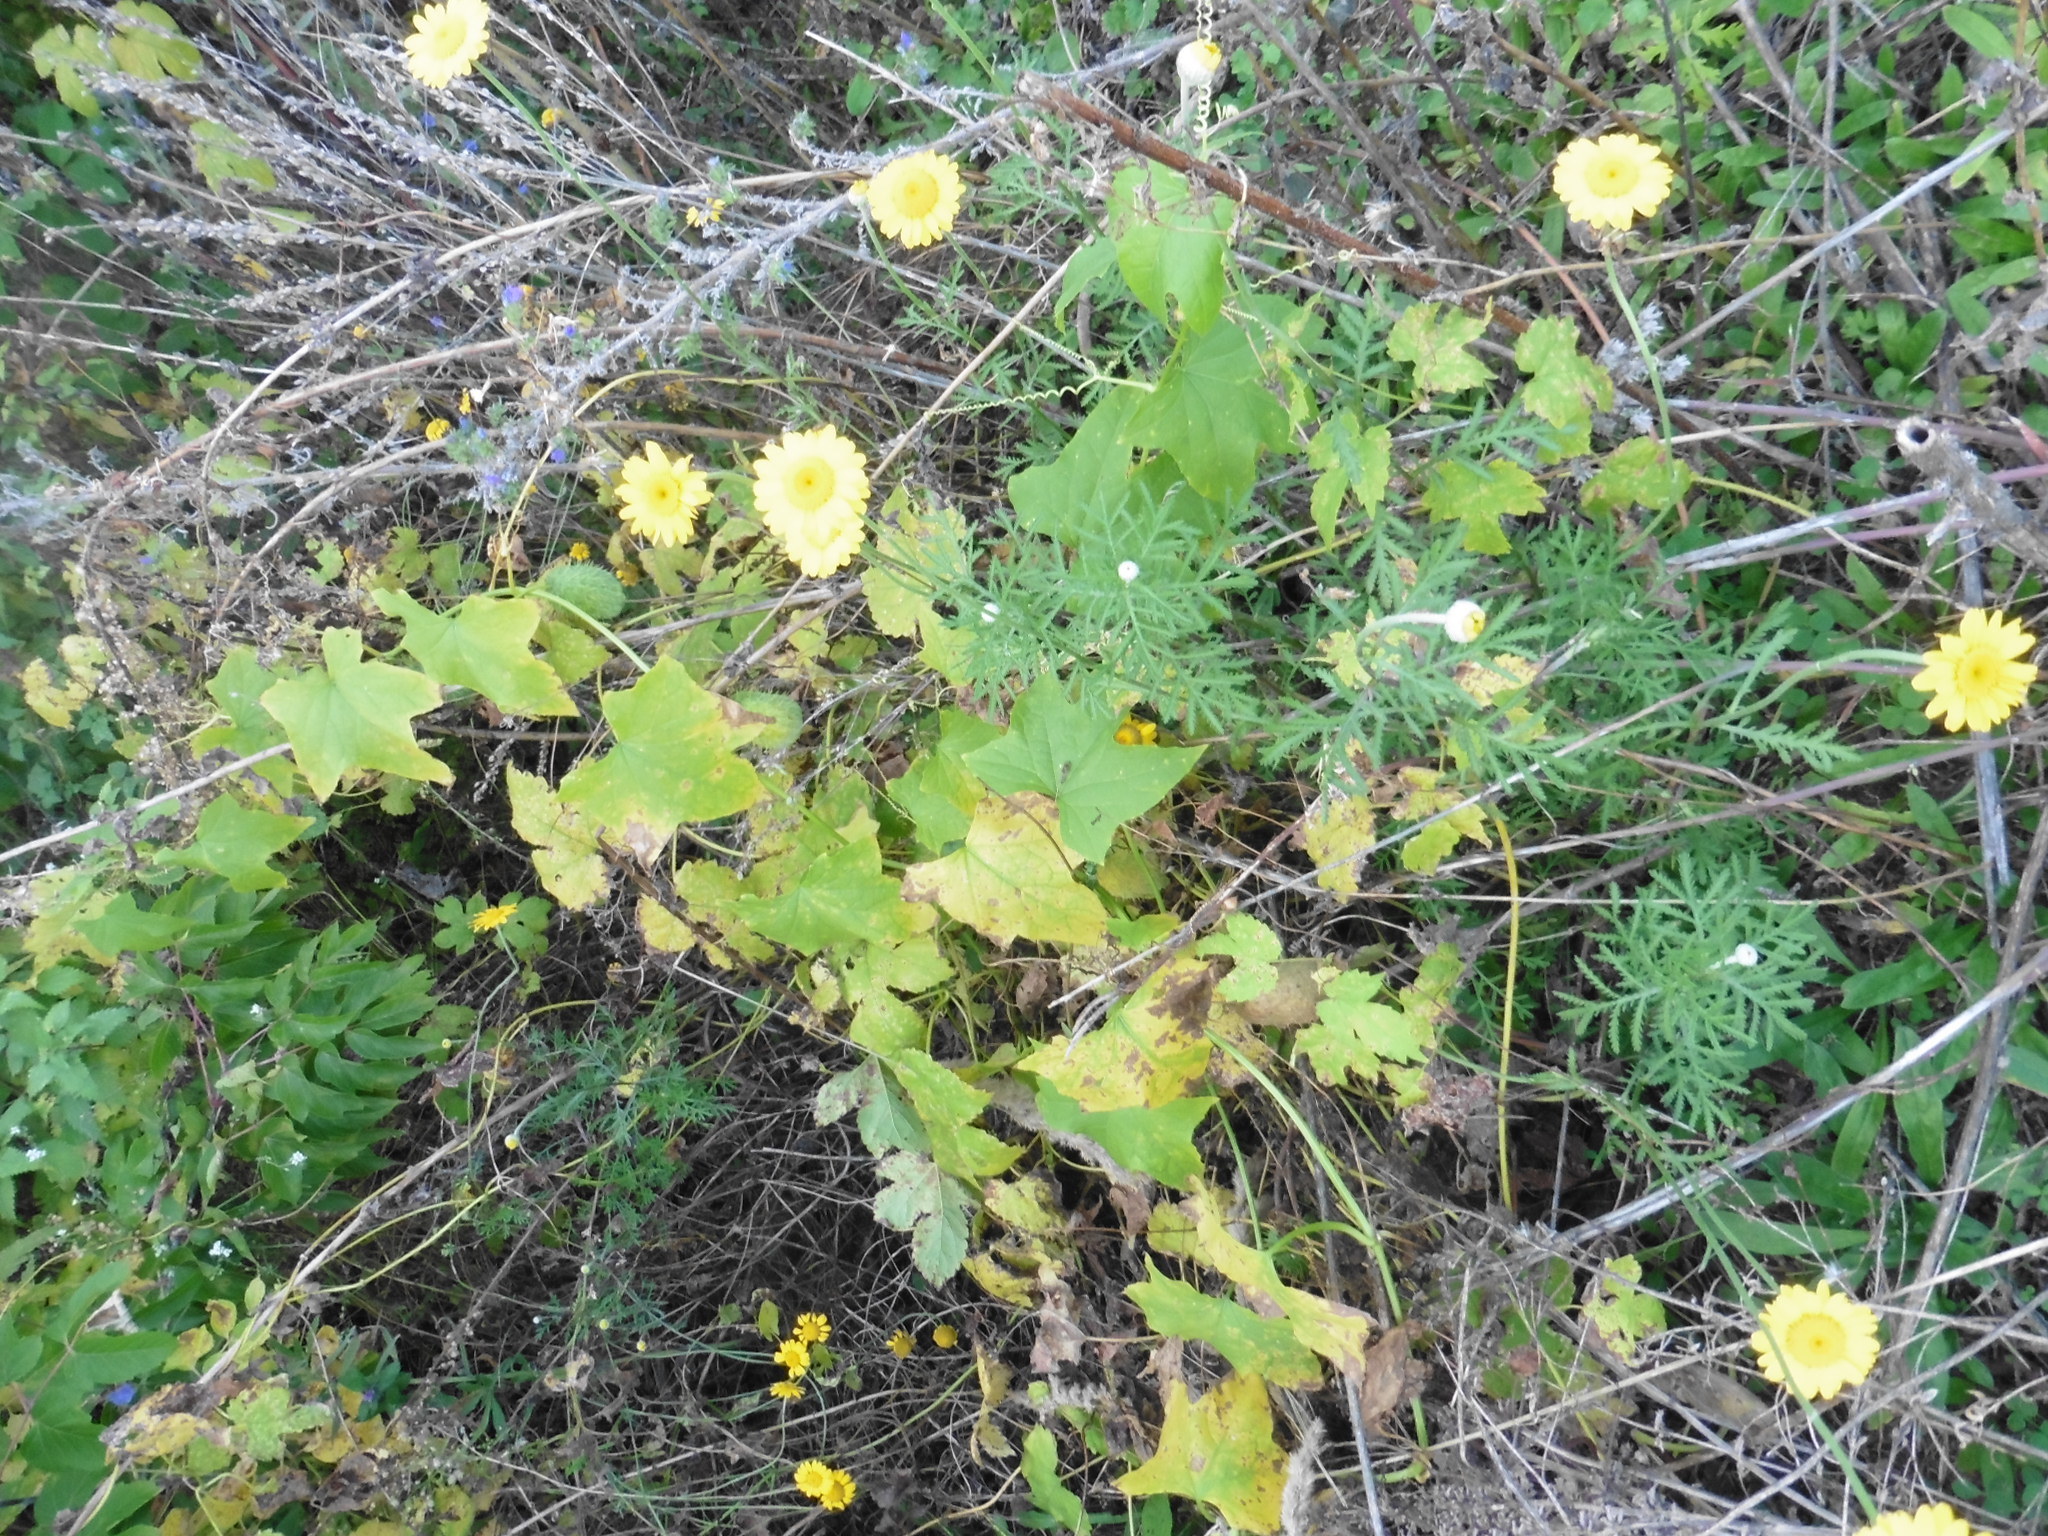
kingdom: Plantae
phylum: Tracheophyta
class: Magnoliopsida
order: Asterales
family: Asteraceae
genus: Cota
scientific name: Cota tinctoria
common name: Golden chamomile
